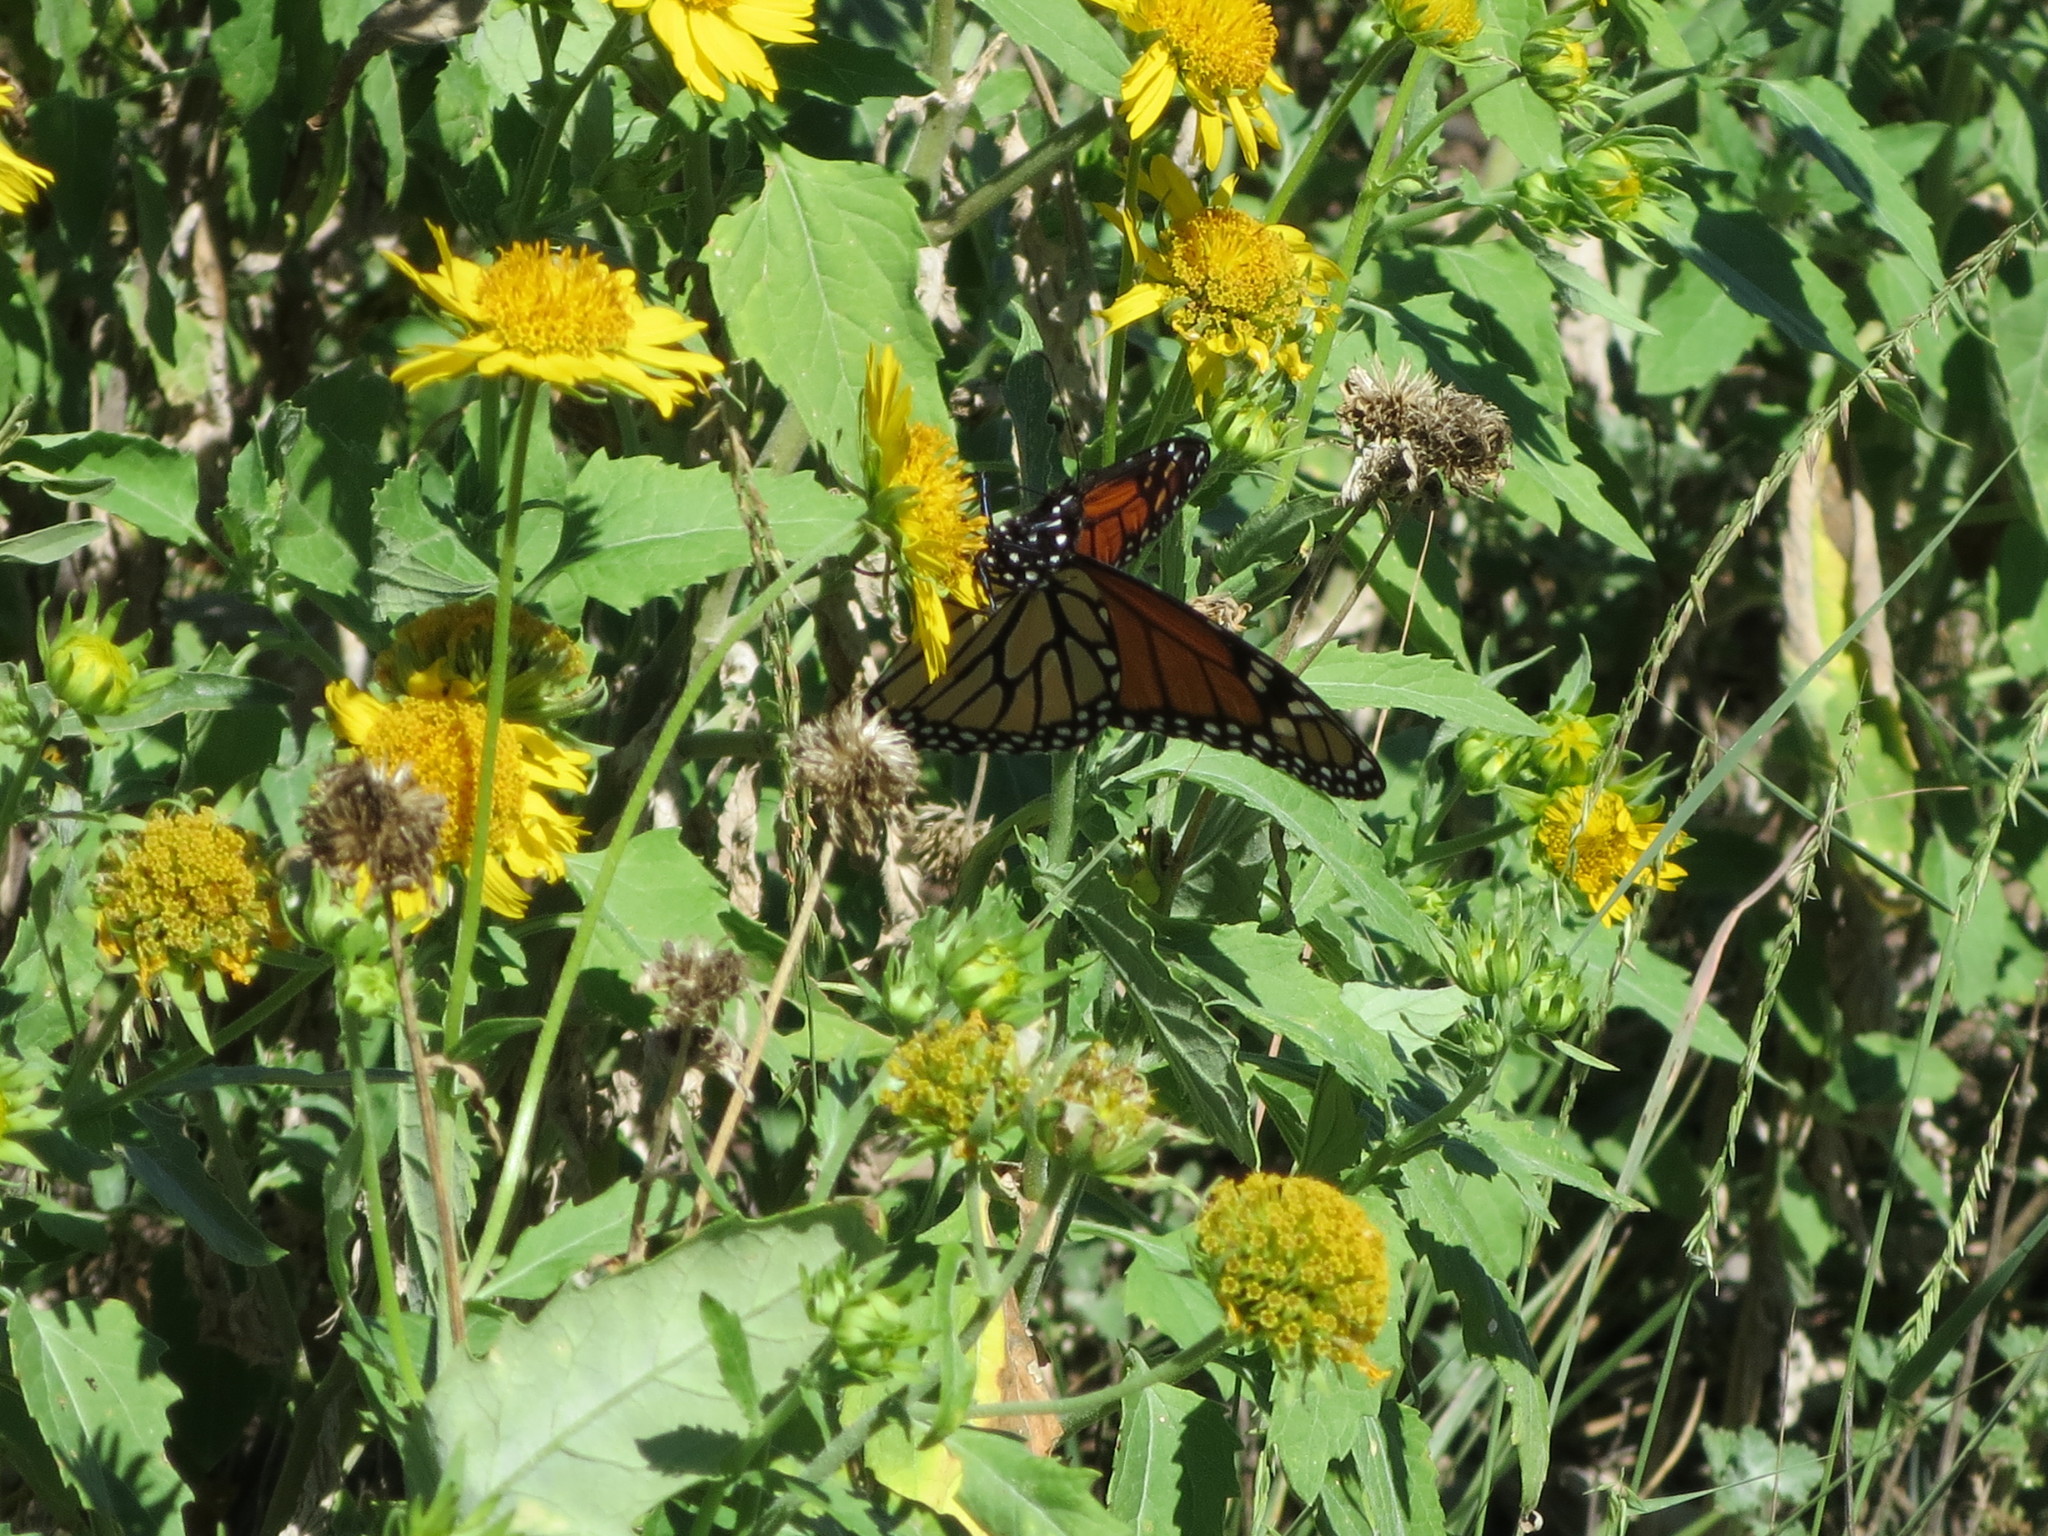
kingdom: Animalia
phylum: Arthropoda
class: Insecta
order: Lepidoptera
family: Nymphalidae
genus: Danaus
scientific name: Danaus plexippus
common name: Monarch
